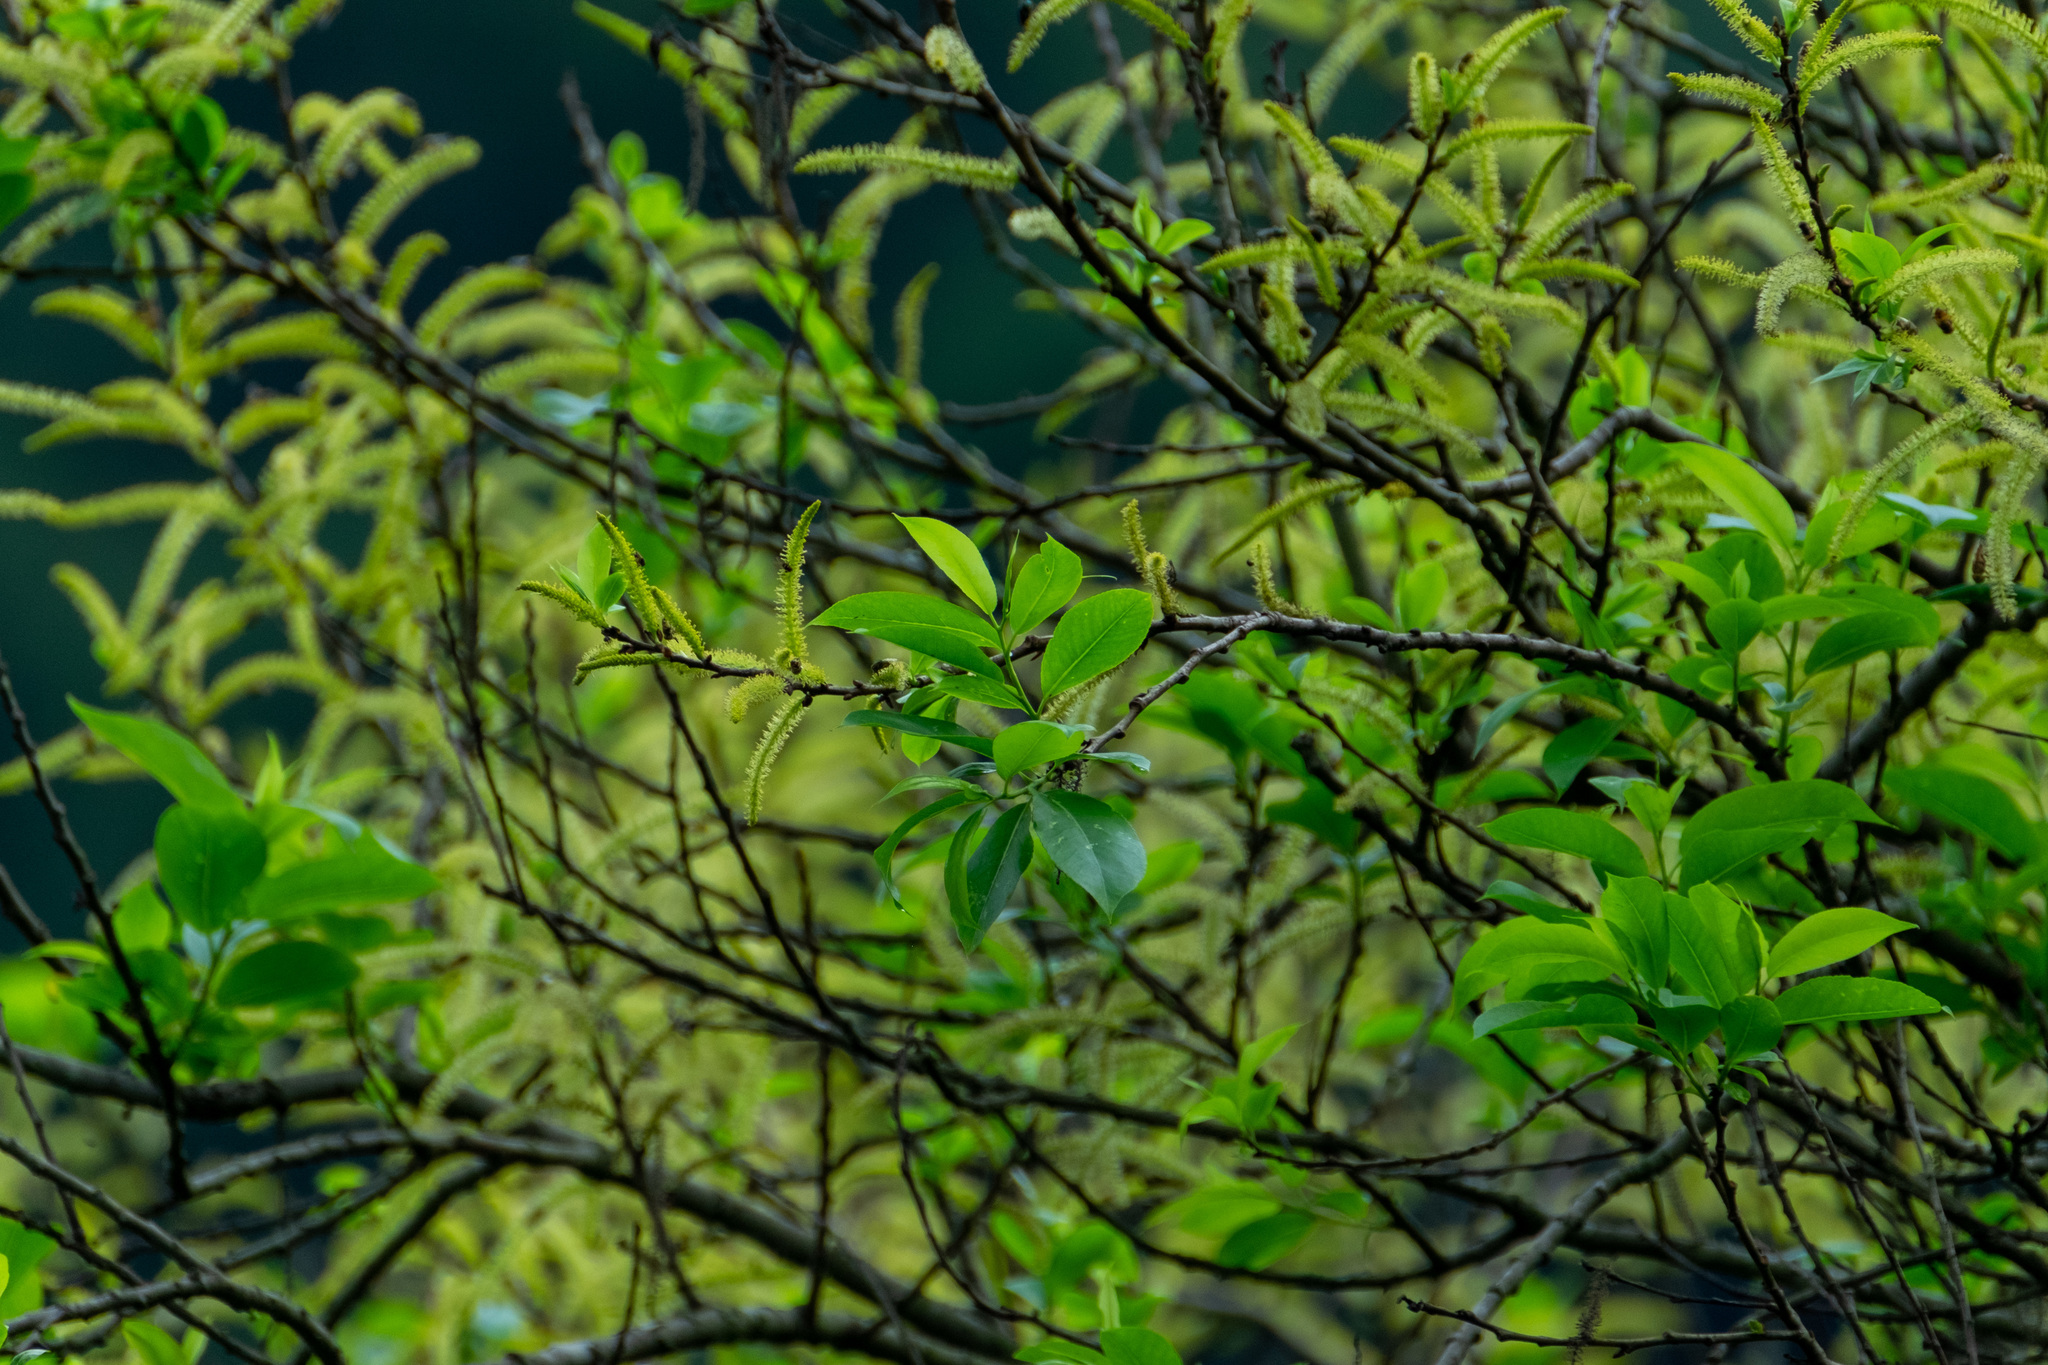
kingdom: Plantae
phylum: Tracheophyta
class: Magnoliopsida
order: Malpighiales
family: Salicaceae
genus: Salix
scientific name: Salix tetrasperma
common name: Indian willow
